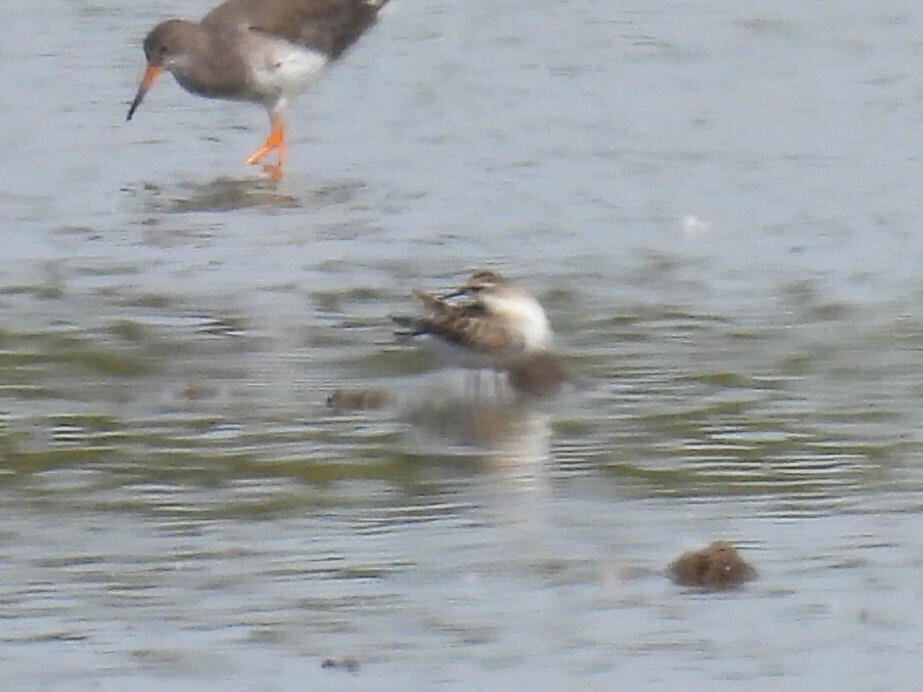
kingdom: Animalia
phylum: Chordata
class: Aves
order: Charadriiformes
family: Scolopacidae
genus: Calidris
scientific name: Calidris minuta
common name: Little stint
